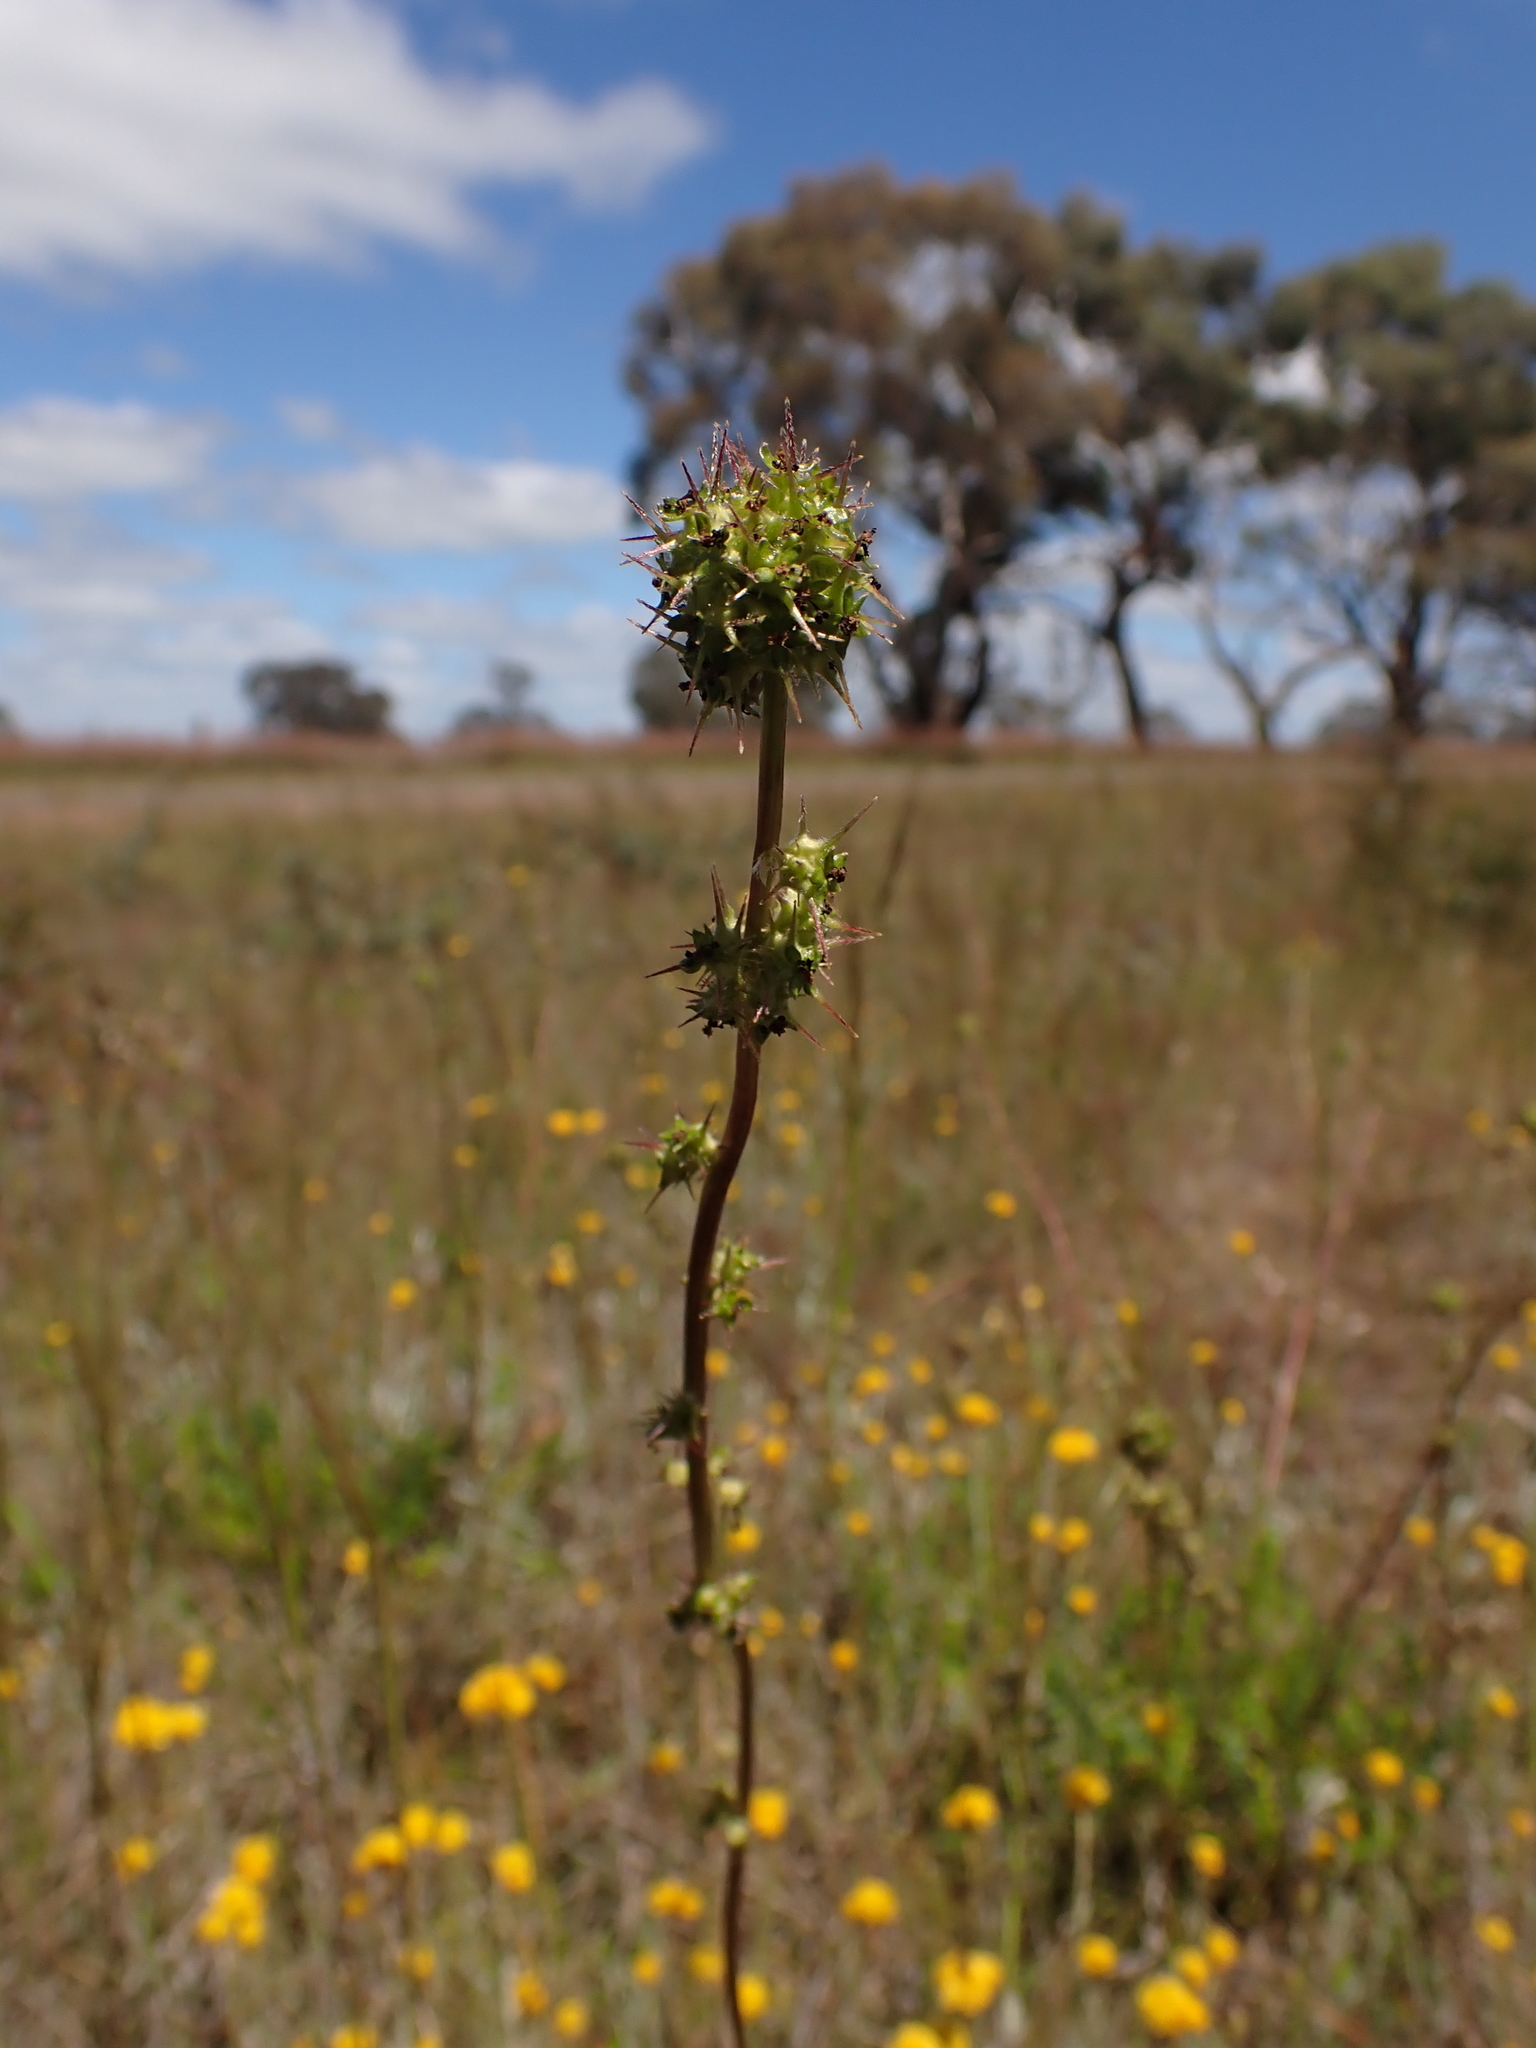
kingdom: Plantae
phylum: Tracheophyta
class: Magnoliopsida
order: Rosales
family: Rosaceae
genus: Acaena
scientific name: Acaena echinata
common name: Sheepbur
